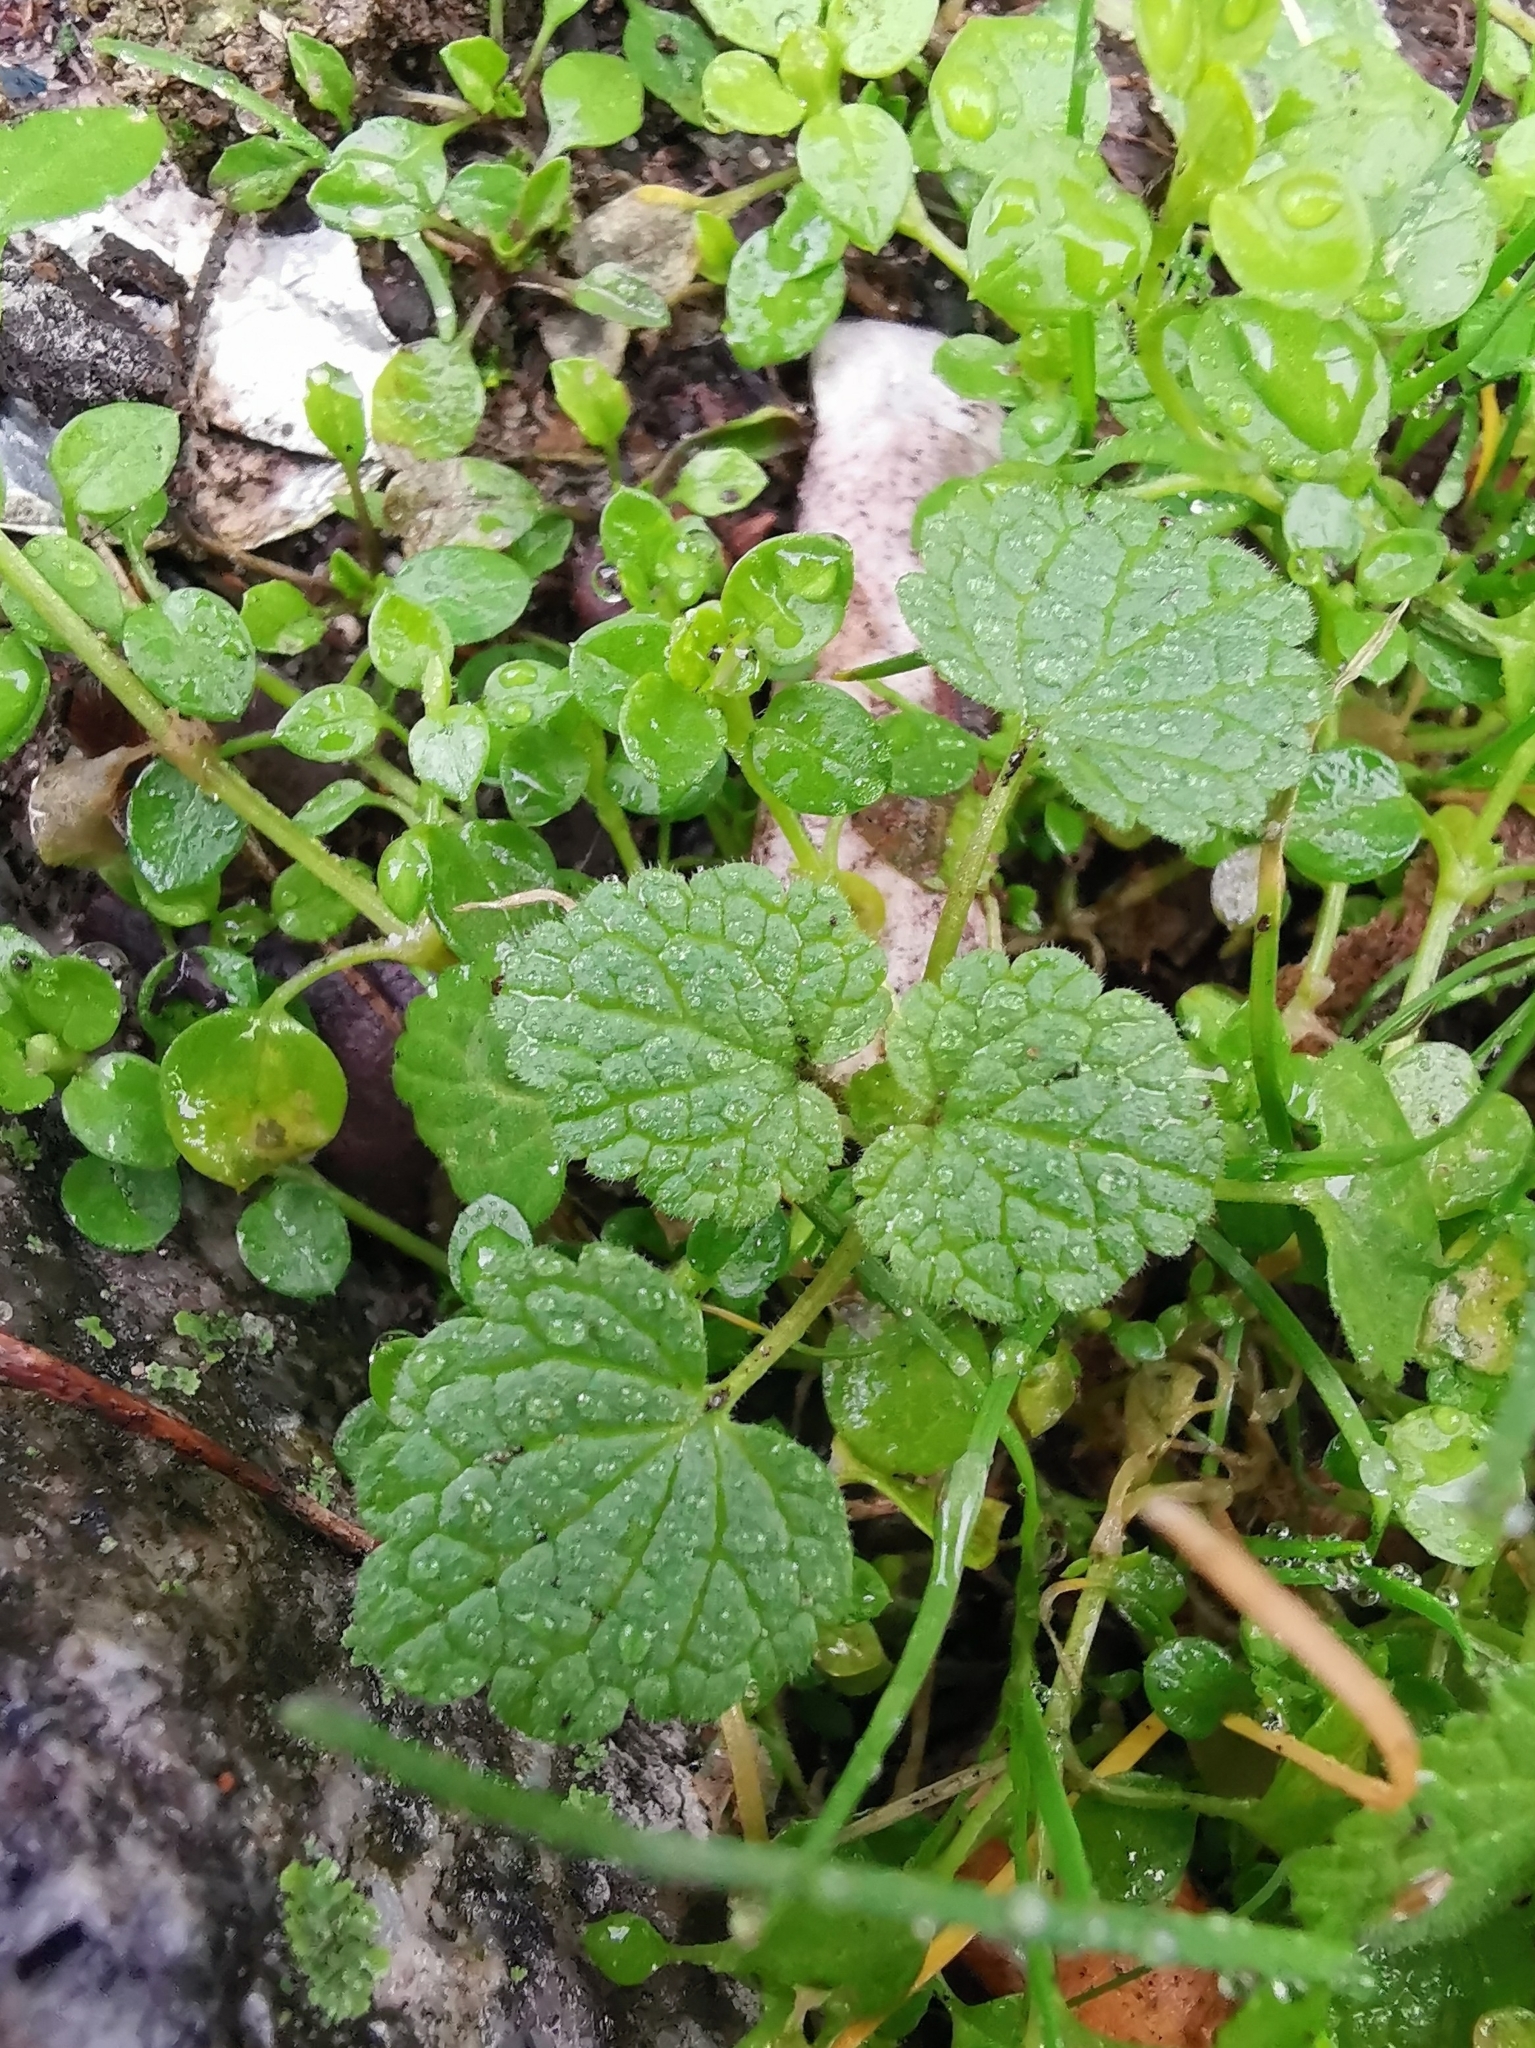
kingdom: Plantae
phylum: Tracheophyta
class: Magnoliopsida
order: Lamiales
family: Lamiaceae
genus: Lamium
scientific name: Lamium purpureum
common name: Red dead-nettle
